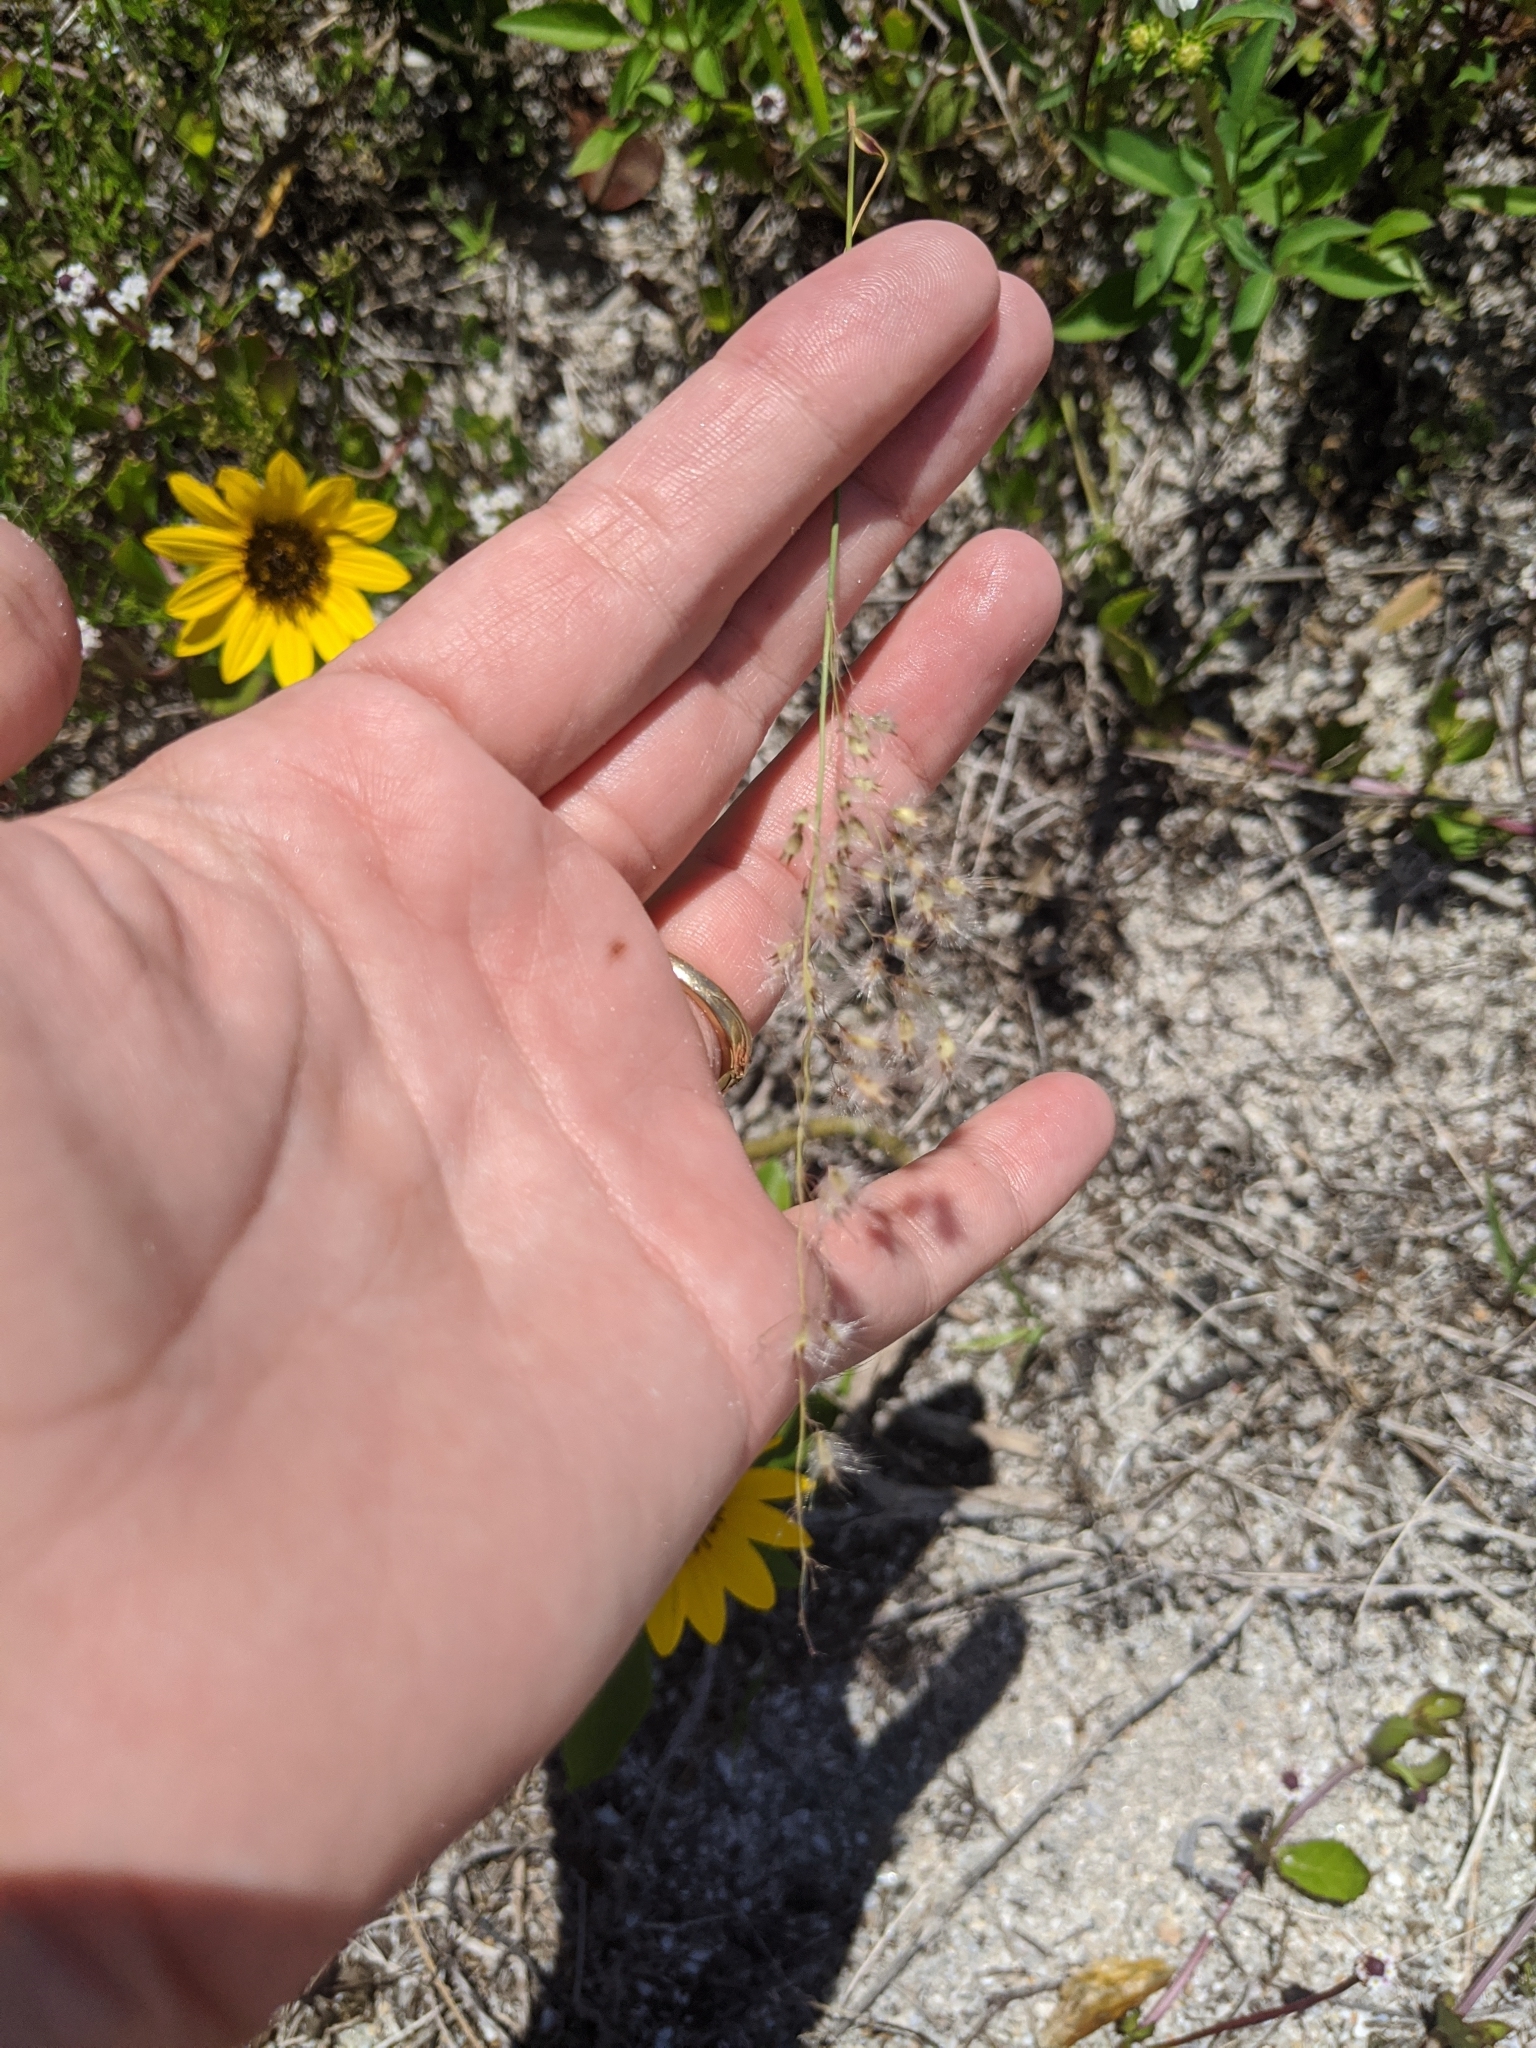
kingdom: Plantae
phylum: Tracheophyta
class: Liliopsida
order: Poales
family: Poaceae
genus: Melinis
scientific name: Melinis repens
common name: Rose natal grass
